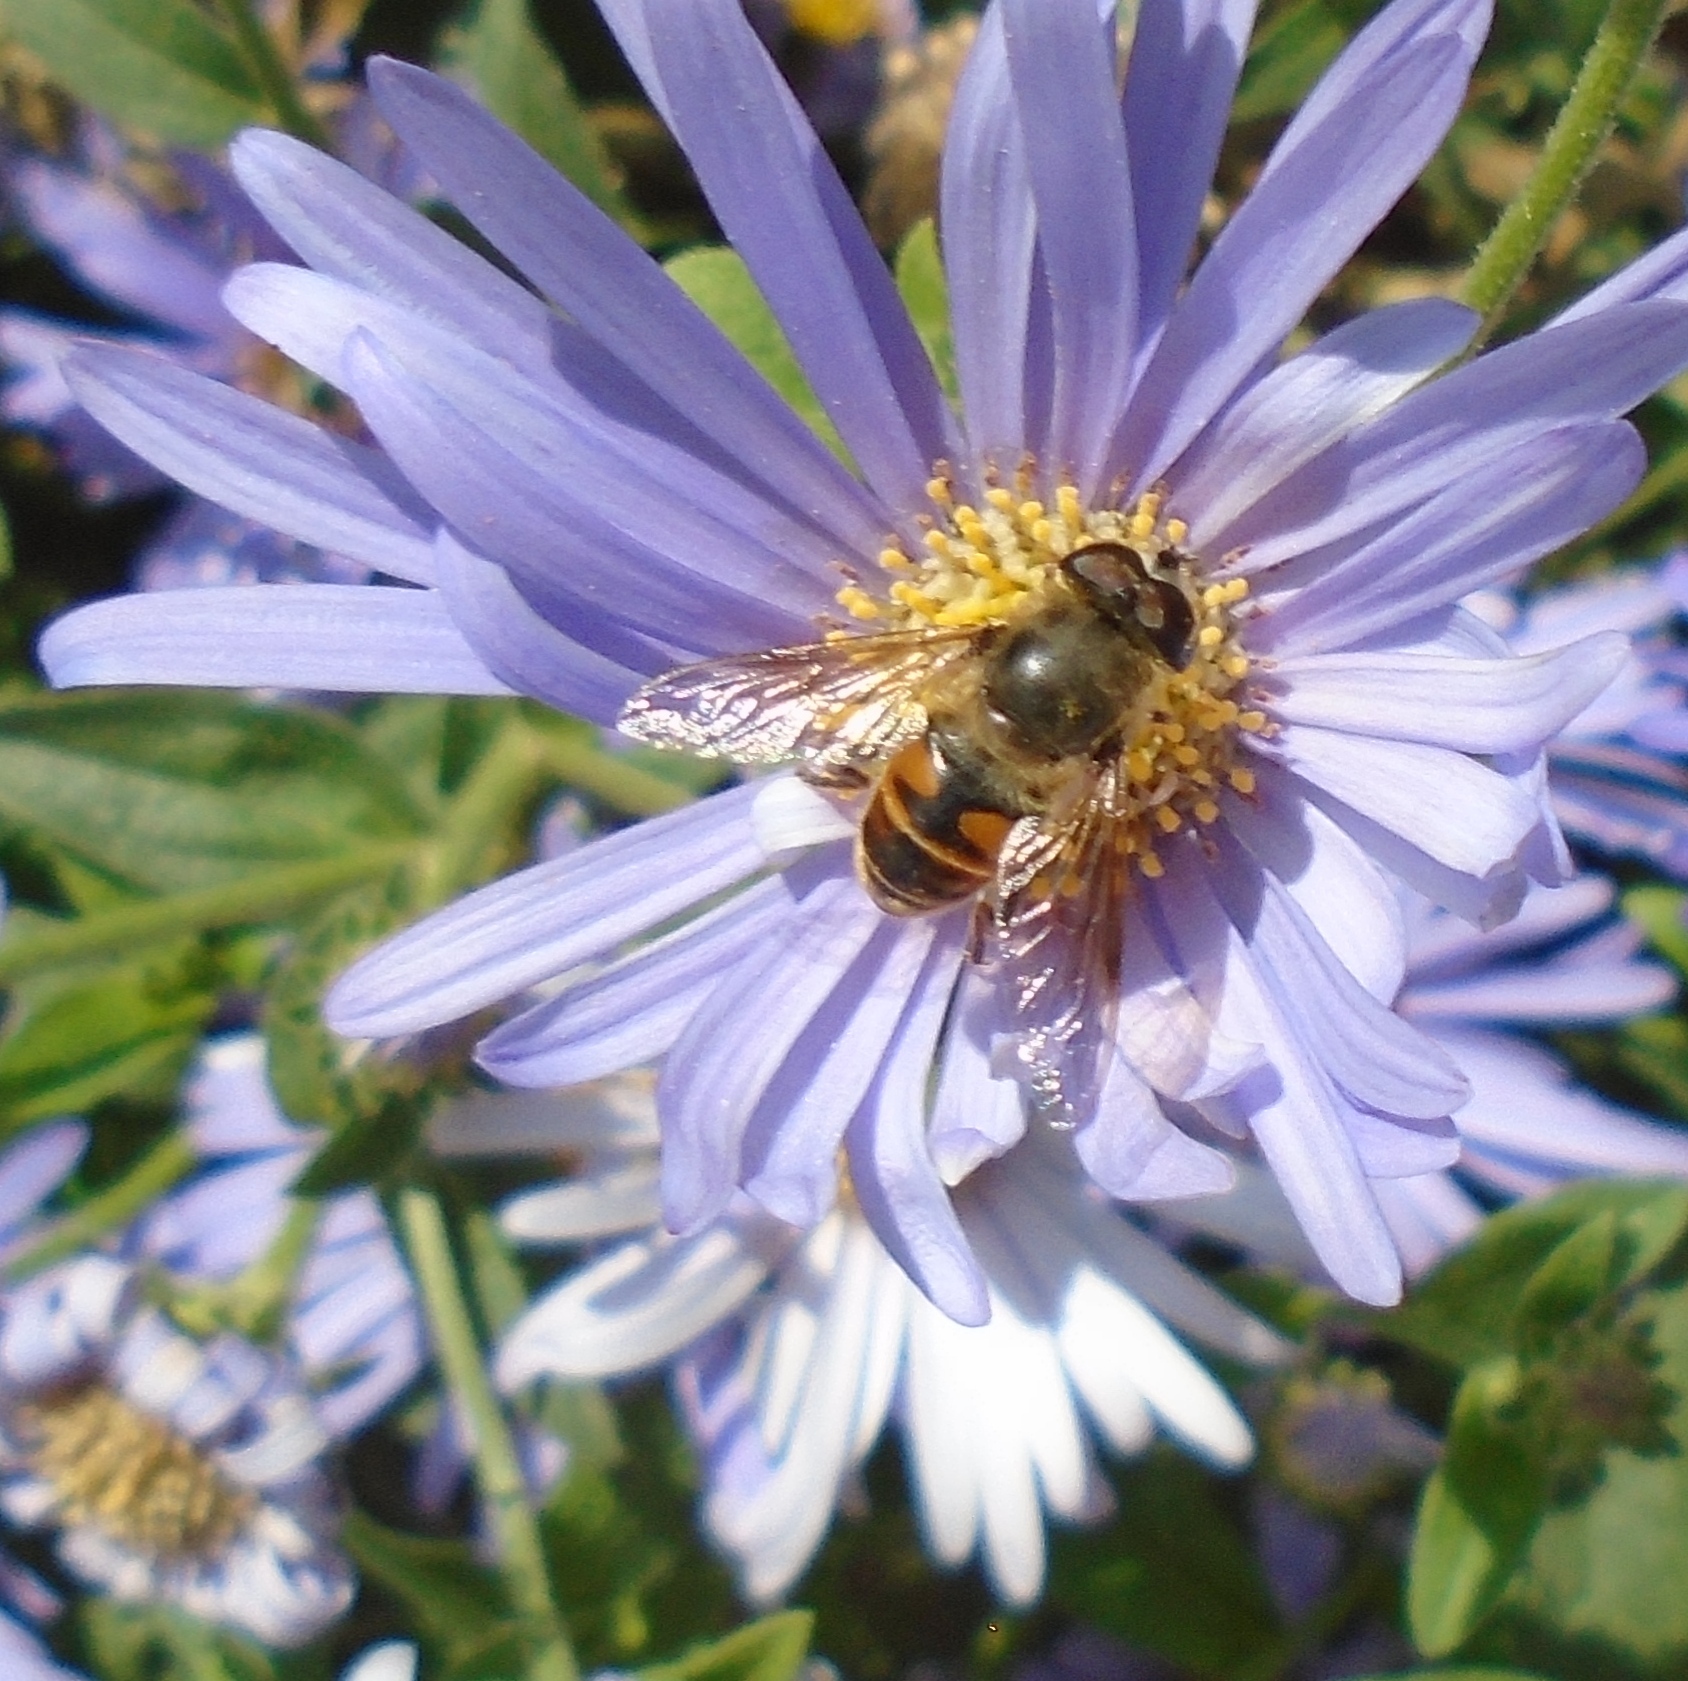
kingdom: Animalia
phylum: Arthropoda
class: Insecta
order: Diptera
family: Syrphidae
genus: Eristalis
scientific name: Eristalis tenax
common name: Drone fly
